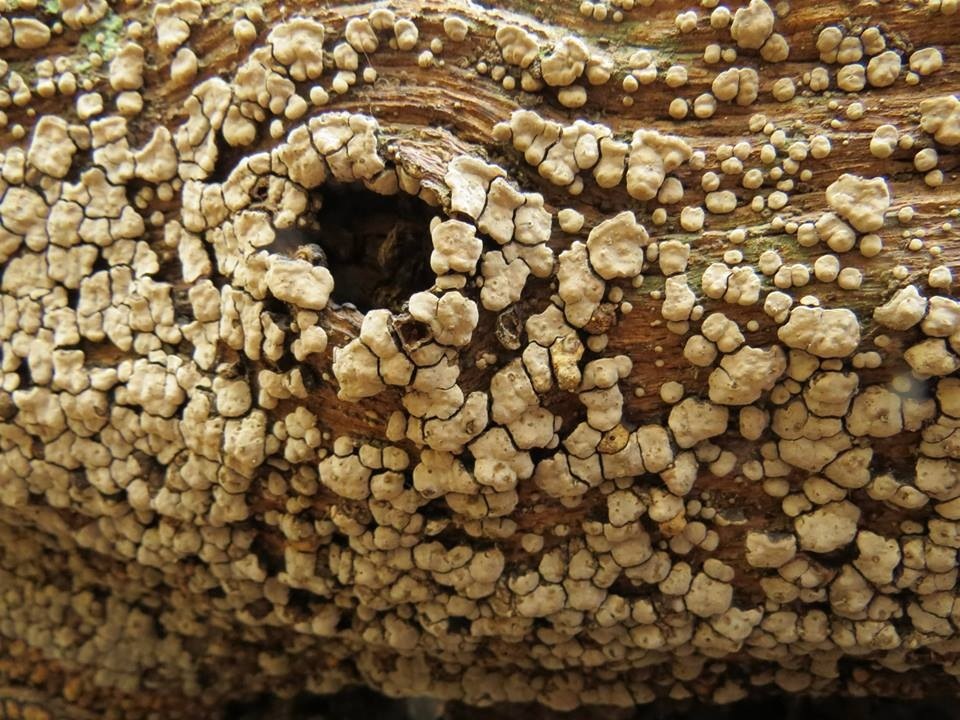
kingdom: Fungi
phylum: Basidiomycota
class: Agaricomycetes
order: Russulales
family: Stereaceae
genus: Xylobolus
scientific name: Xylobolus frustulatus
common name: Ceramic parchment
